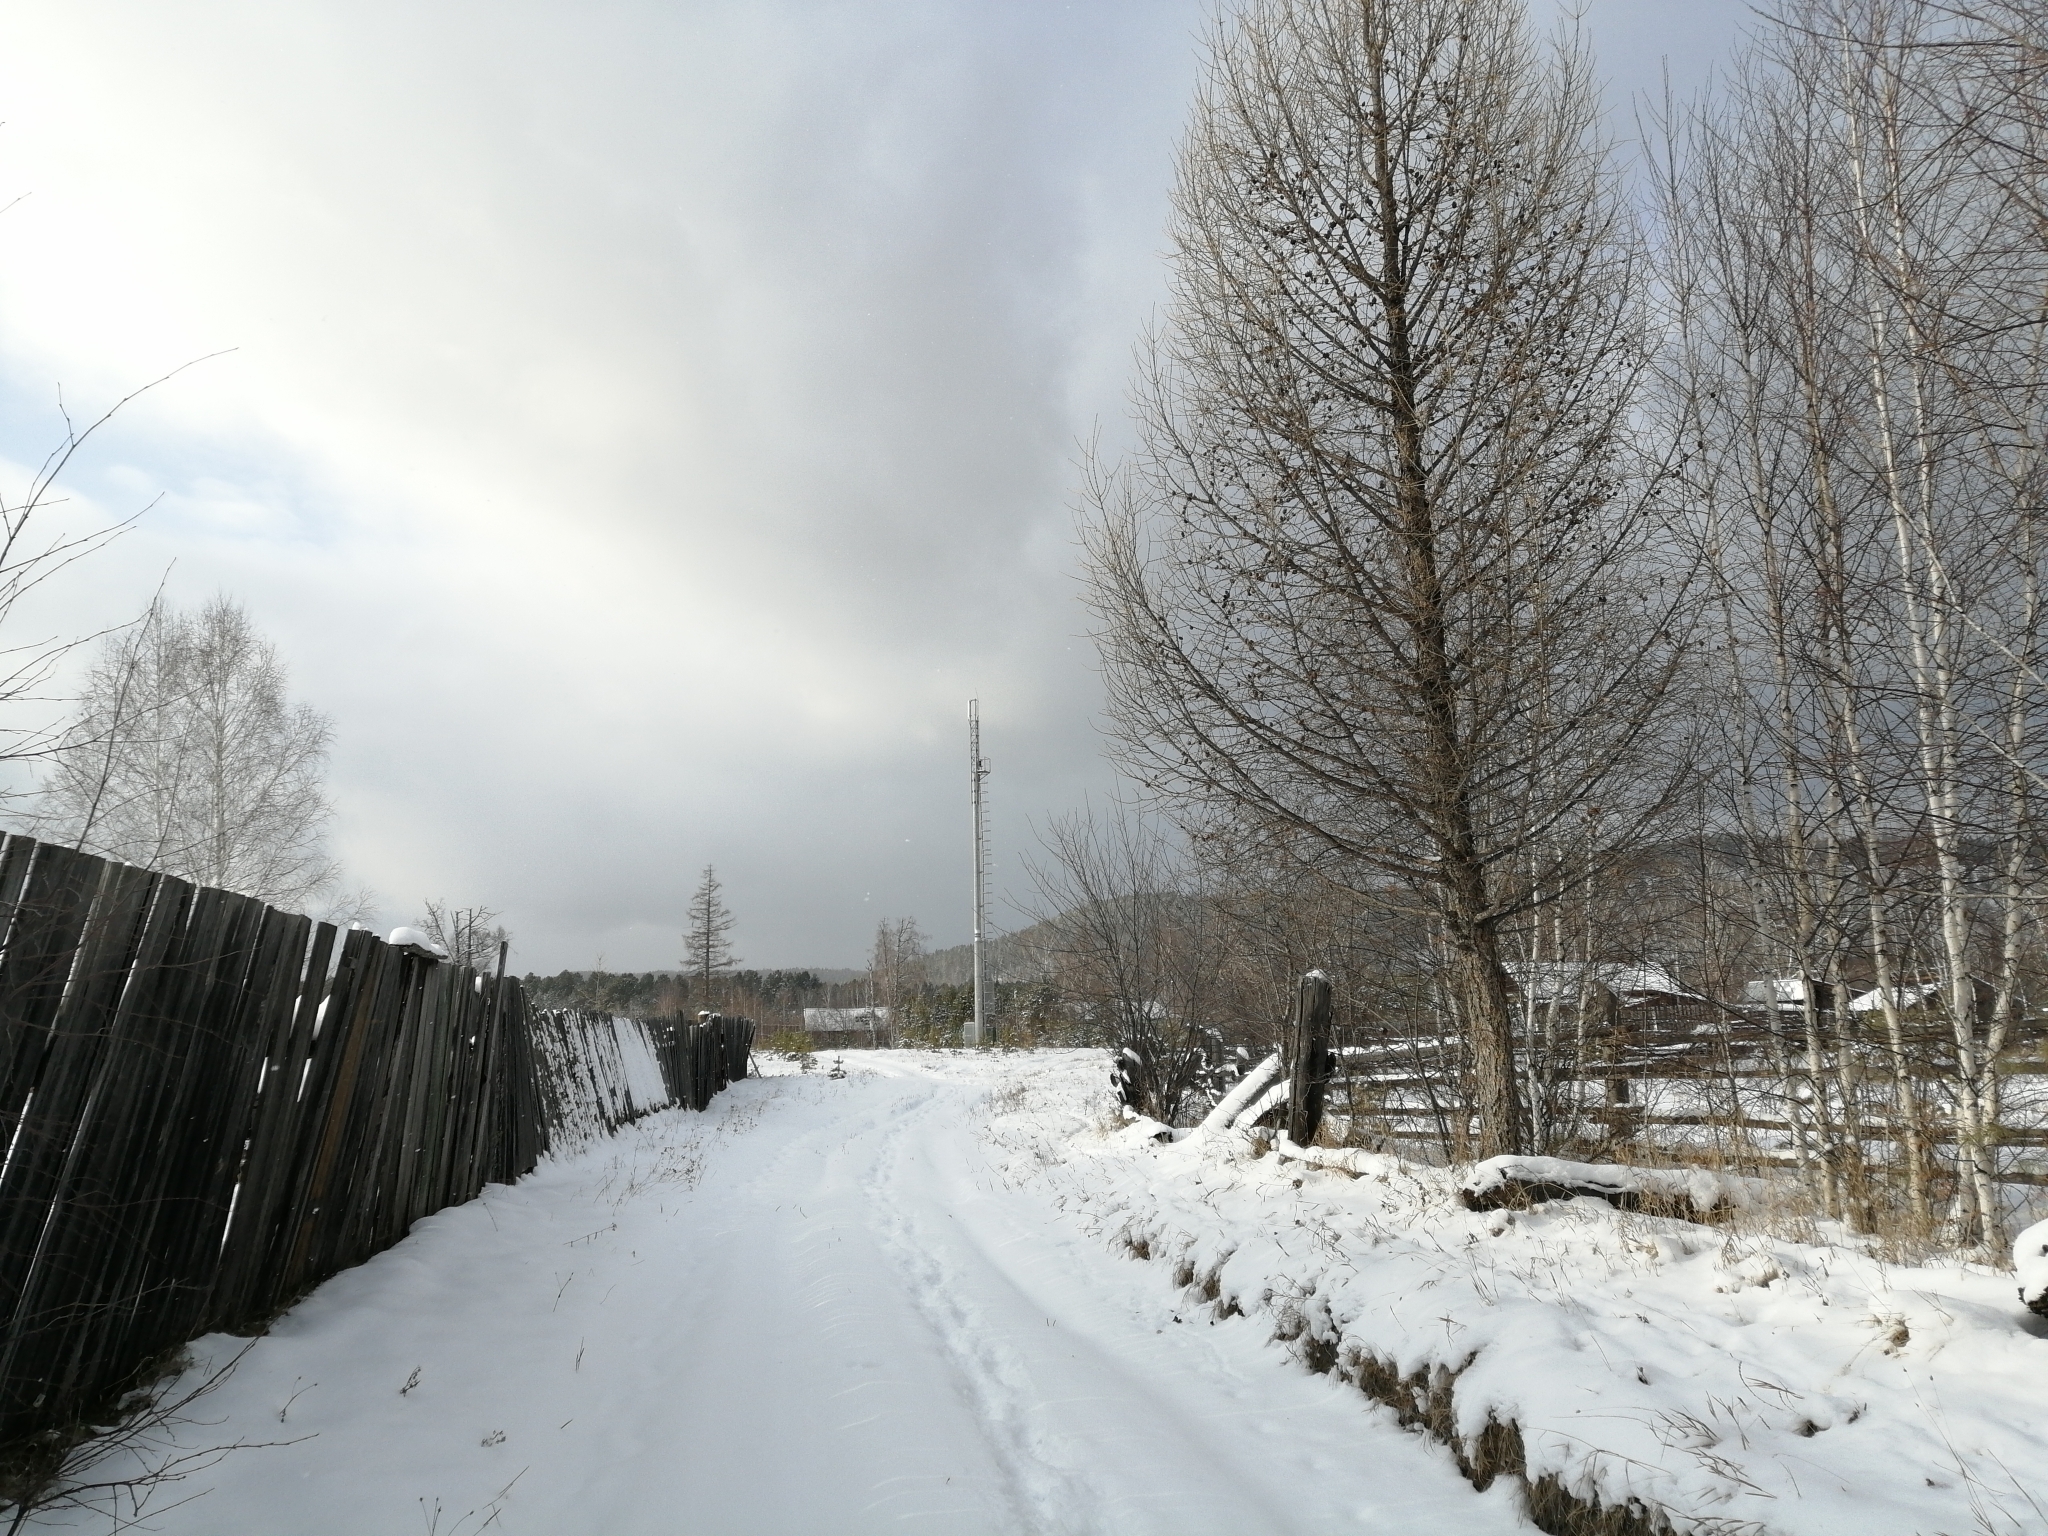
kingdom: Plantae
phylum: Tracheophyta
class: Pinopsida
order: Pinales
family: Pinaceae
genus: Larix
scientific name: Larix sibirica
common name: Siberian larch
